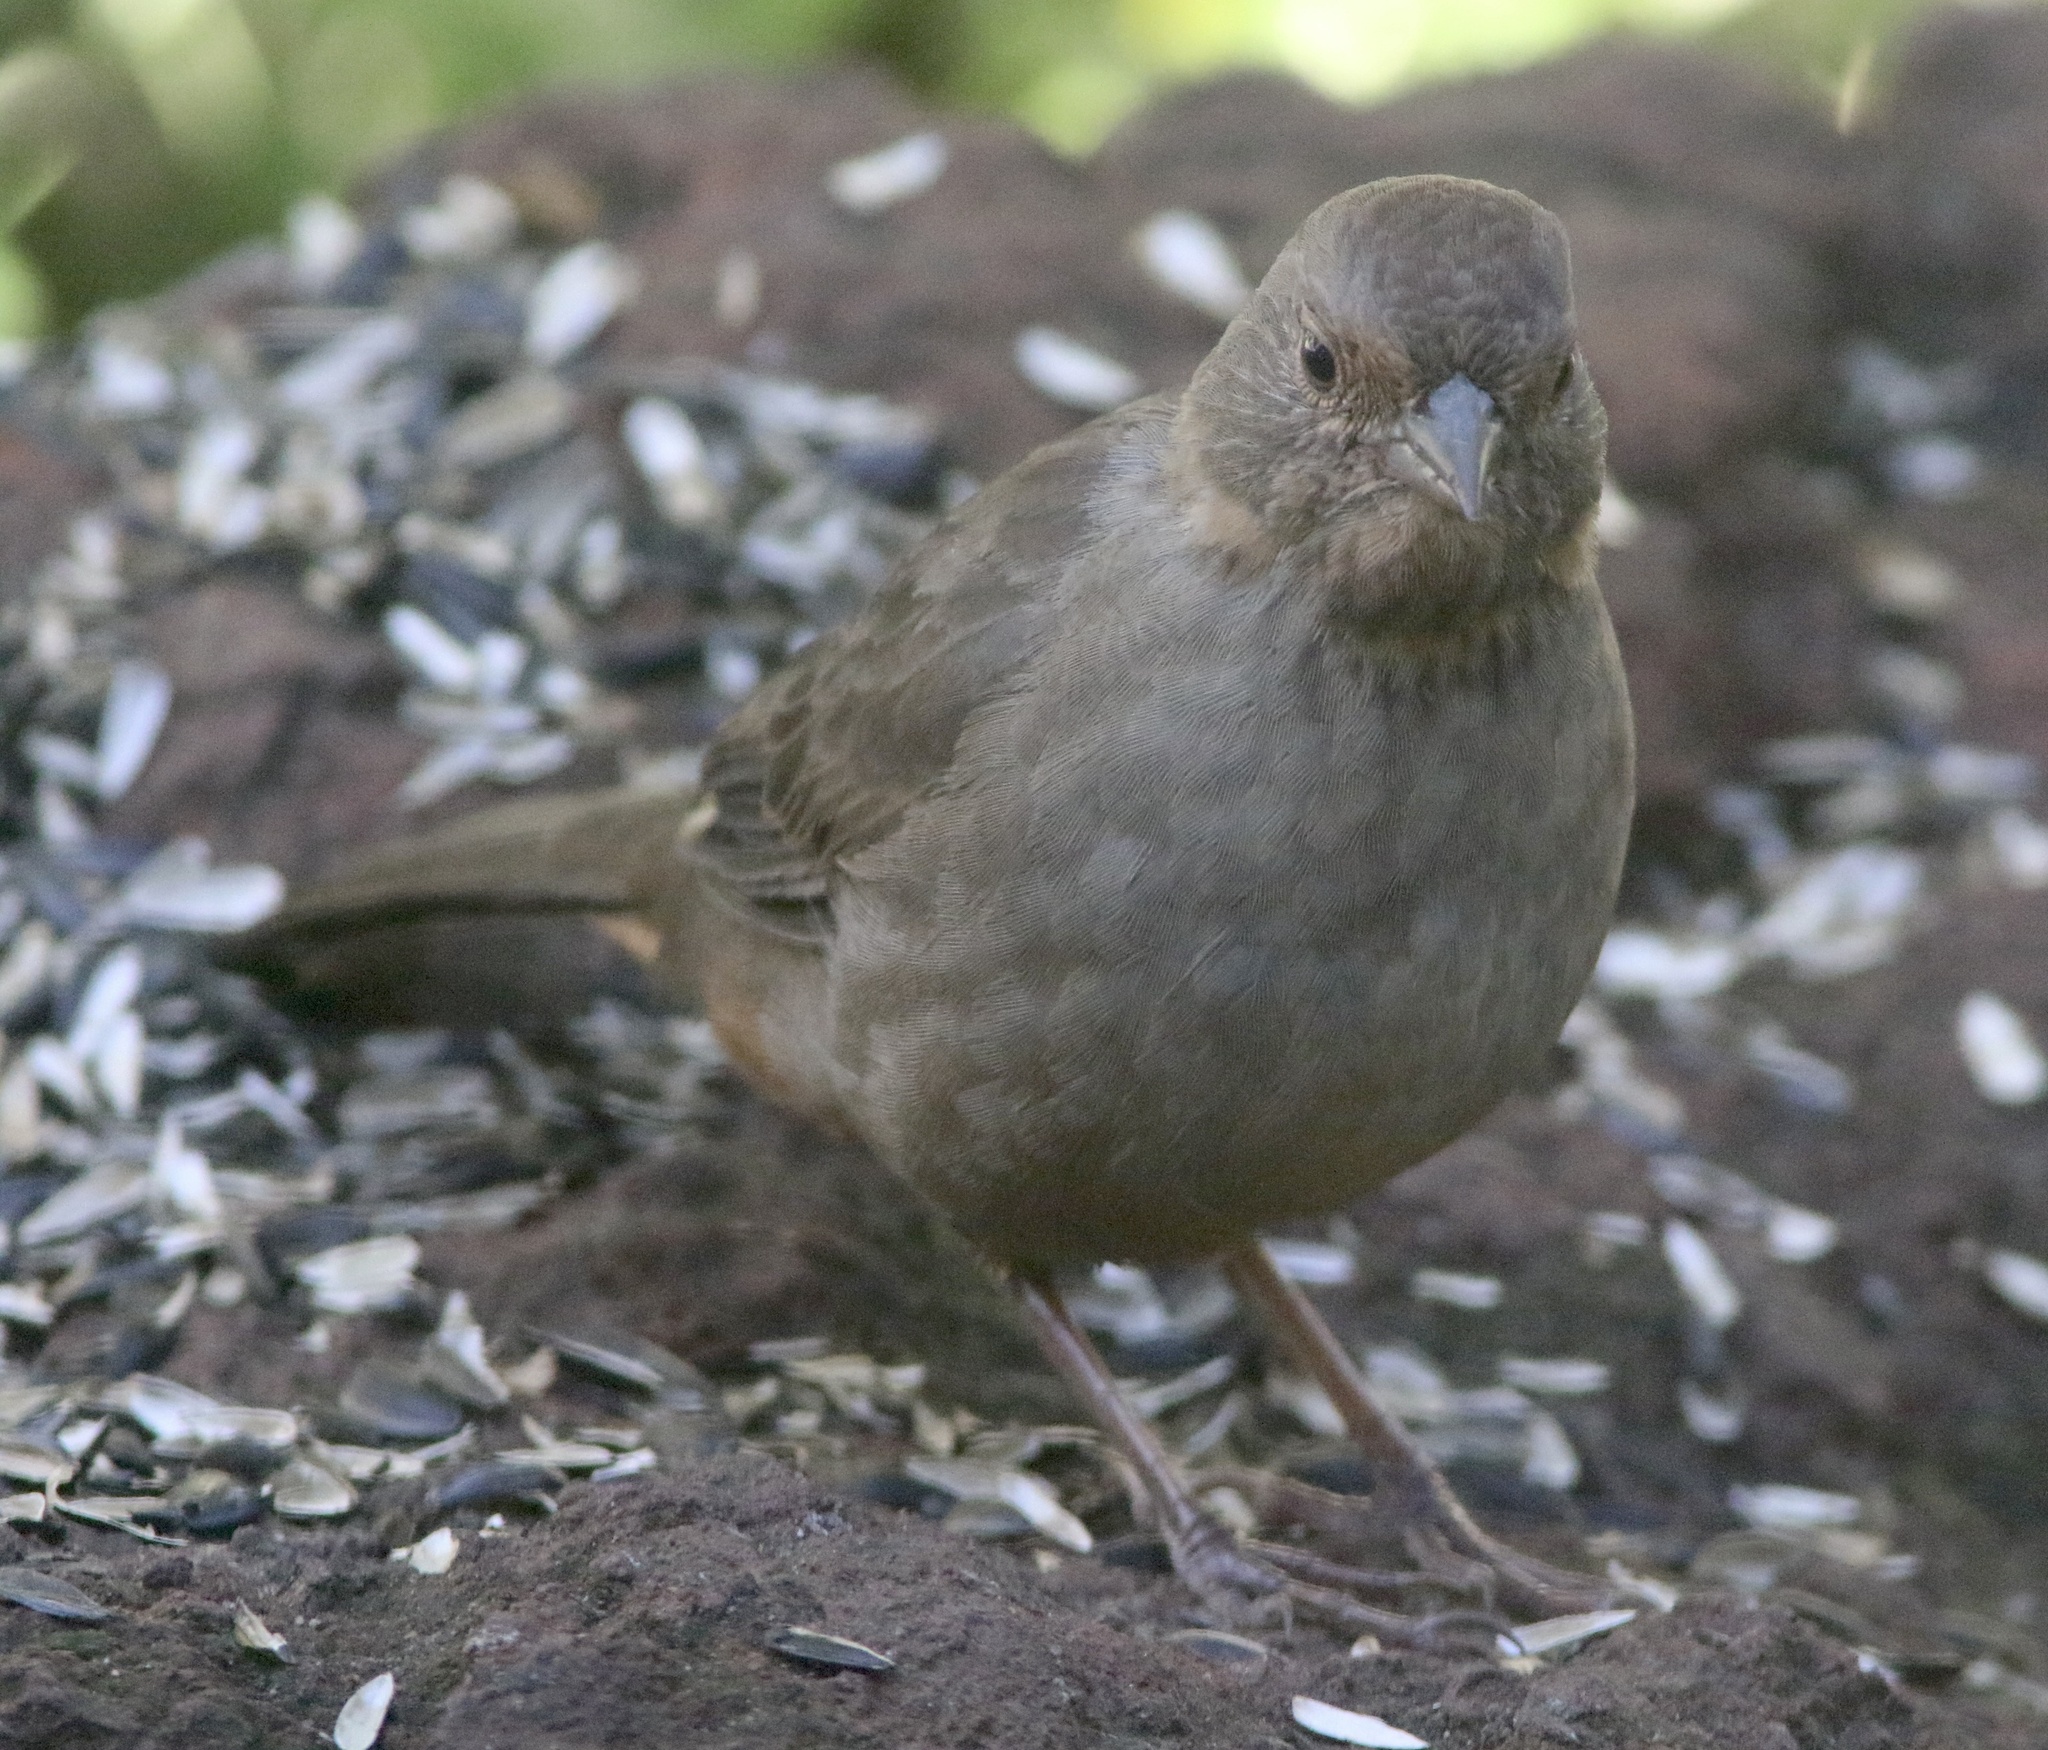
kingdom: Animalia
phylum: Chordata
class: Aves
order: Passeriformes
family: Passerellidae
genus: Melozone
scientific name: Melozone crissalis
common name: California towhee
